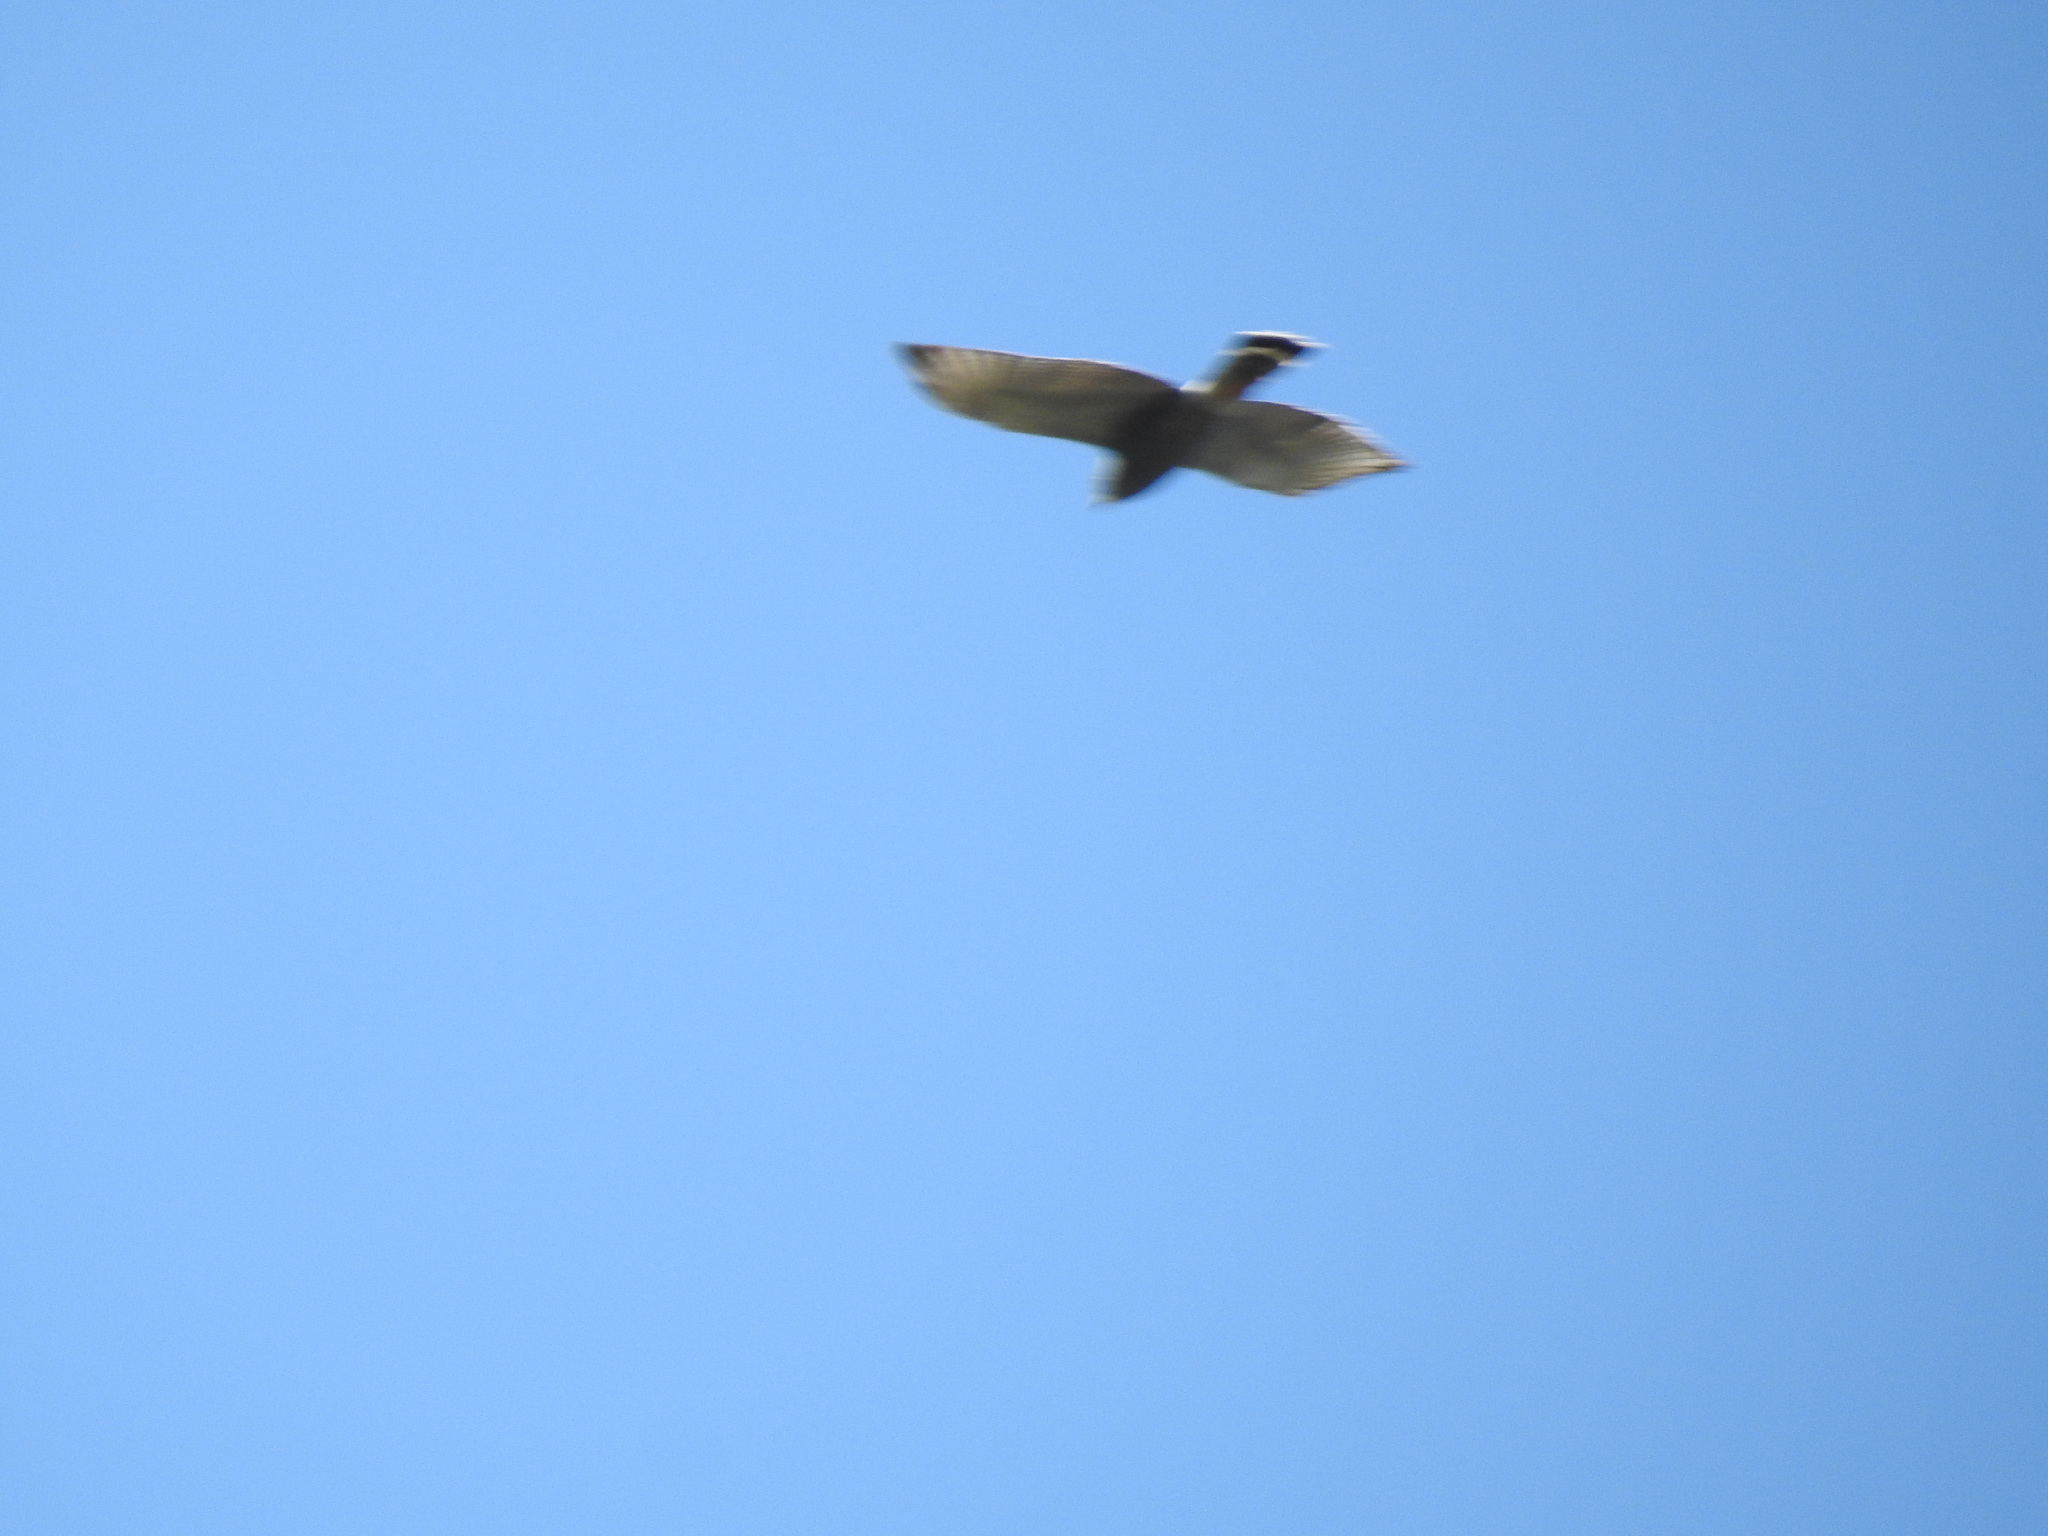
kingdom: Animalia
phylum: Chordata
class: Aves
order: Accipitriformes
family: Accipitridae
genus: Buteo
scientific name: Buteo nitidus
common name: Grey-lined hawk
